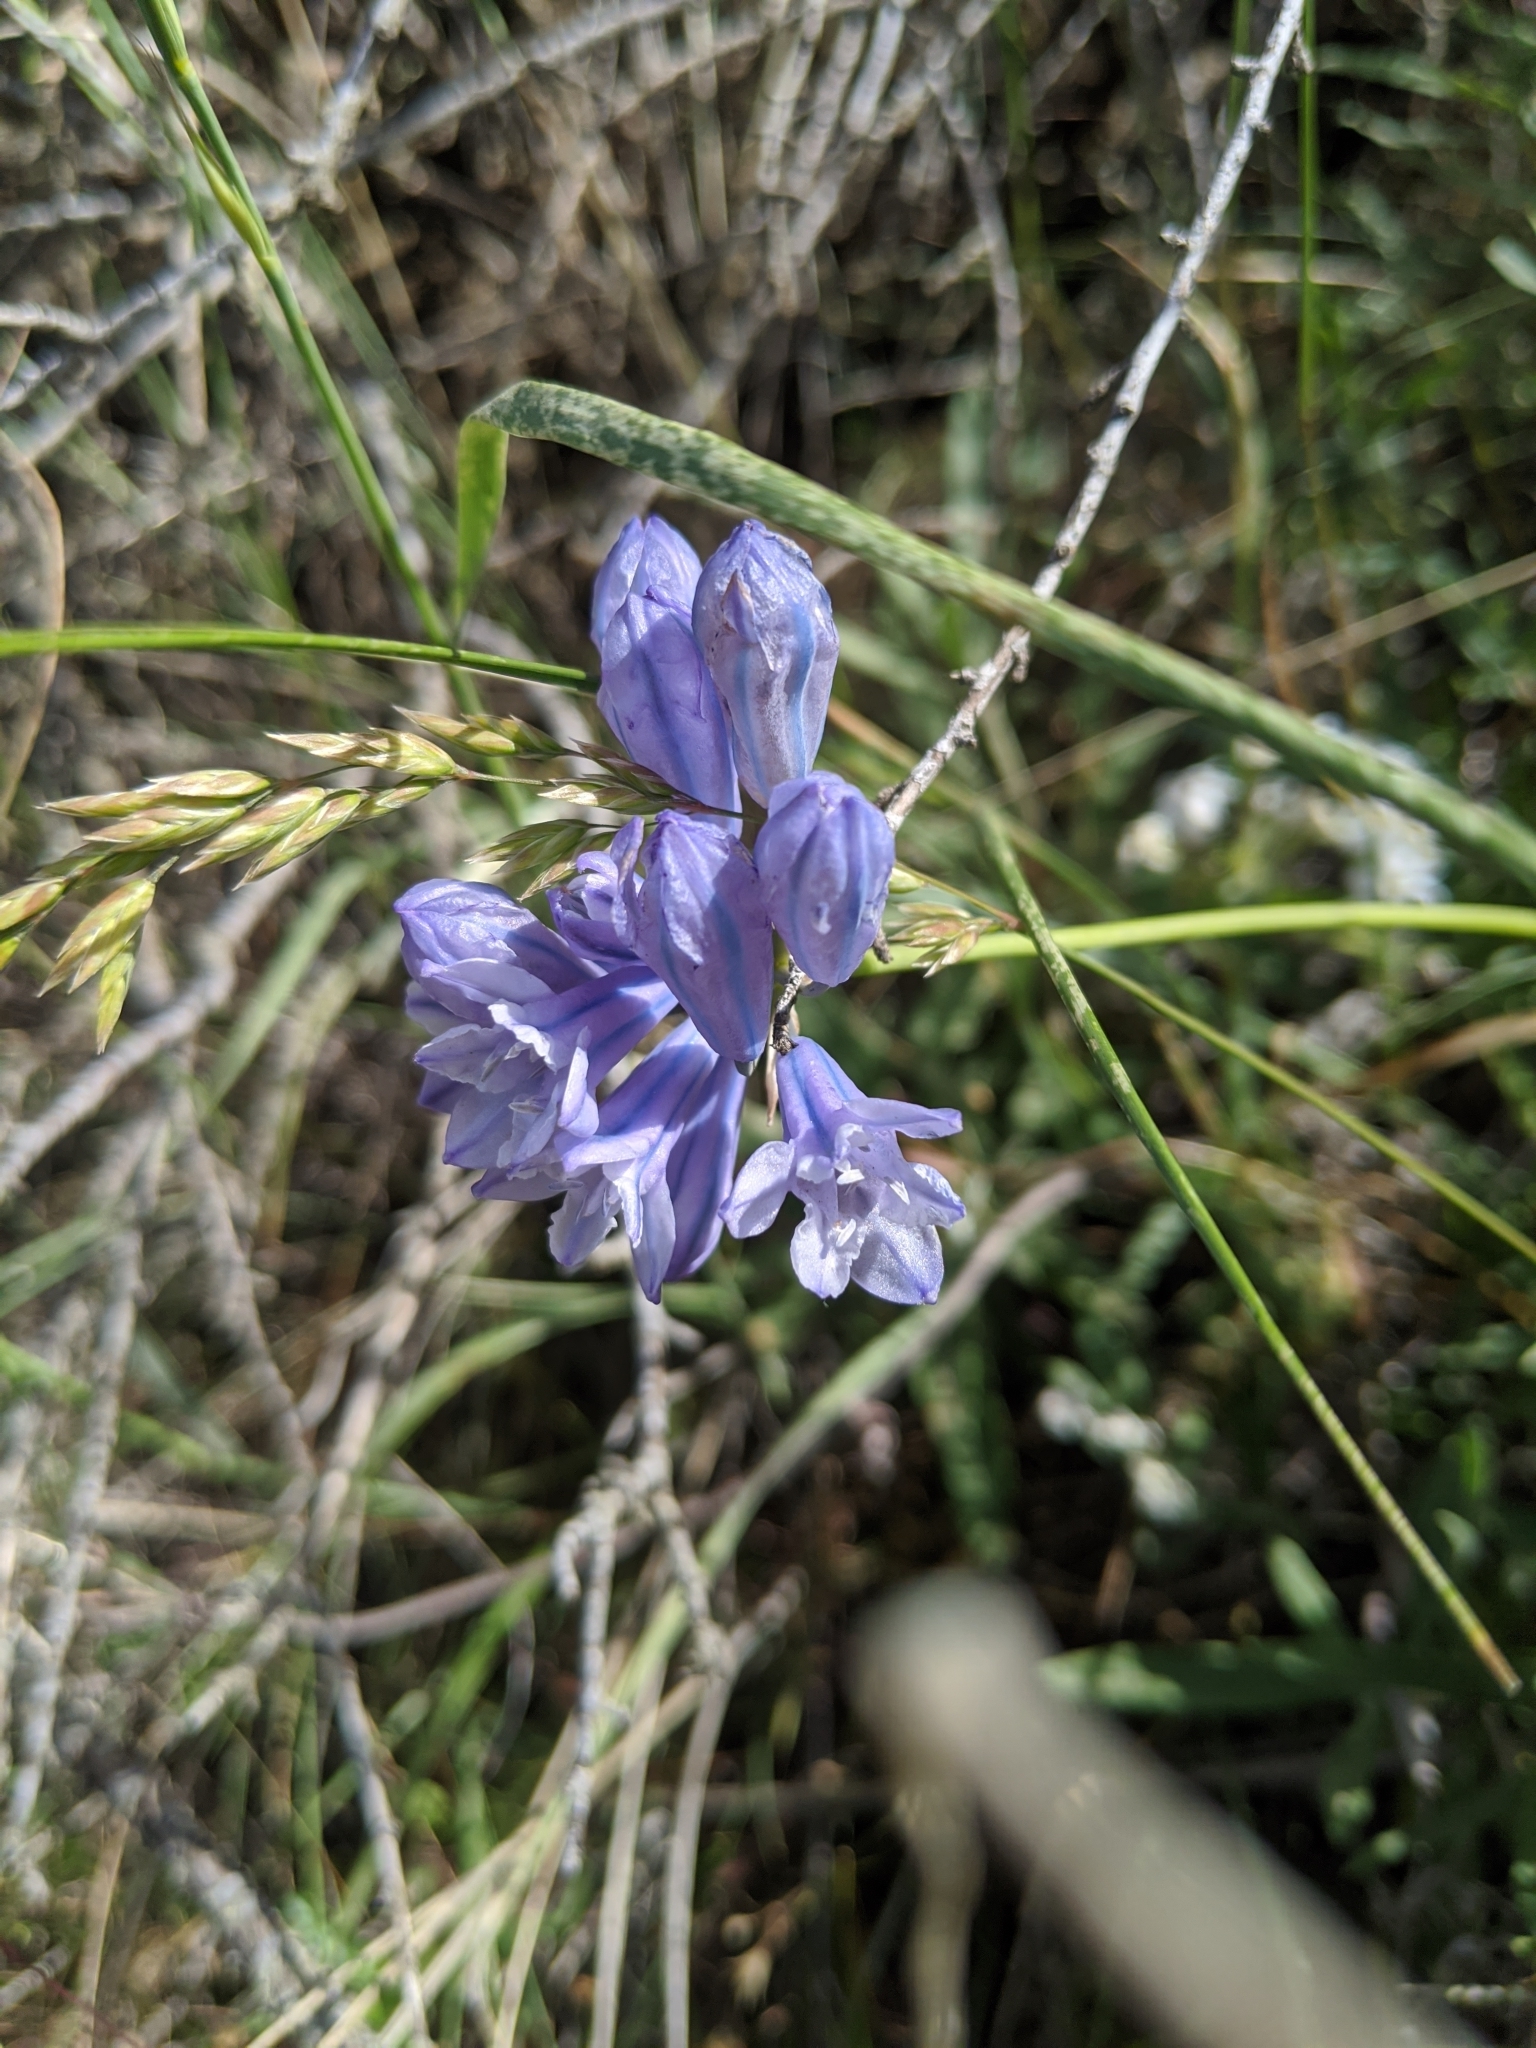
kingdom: Plantae
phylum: Tracheophyta
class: Liliopsida
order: Asparagales
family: Asparagaceae
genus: Triteleia
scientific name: Triteleia grandiflora
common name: Wild hyacinth
